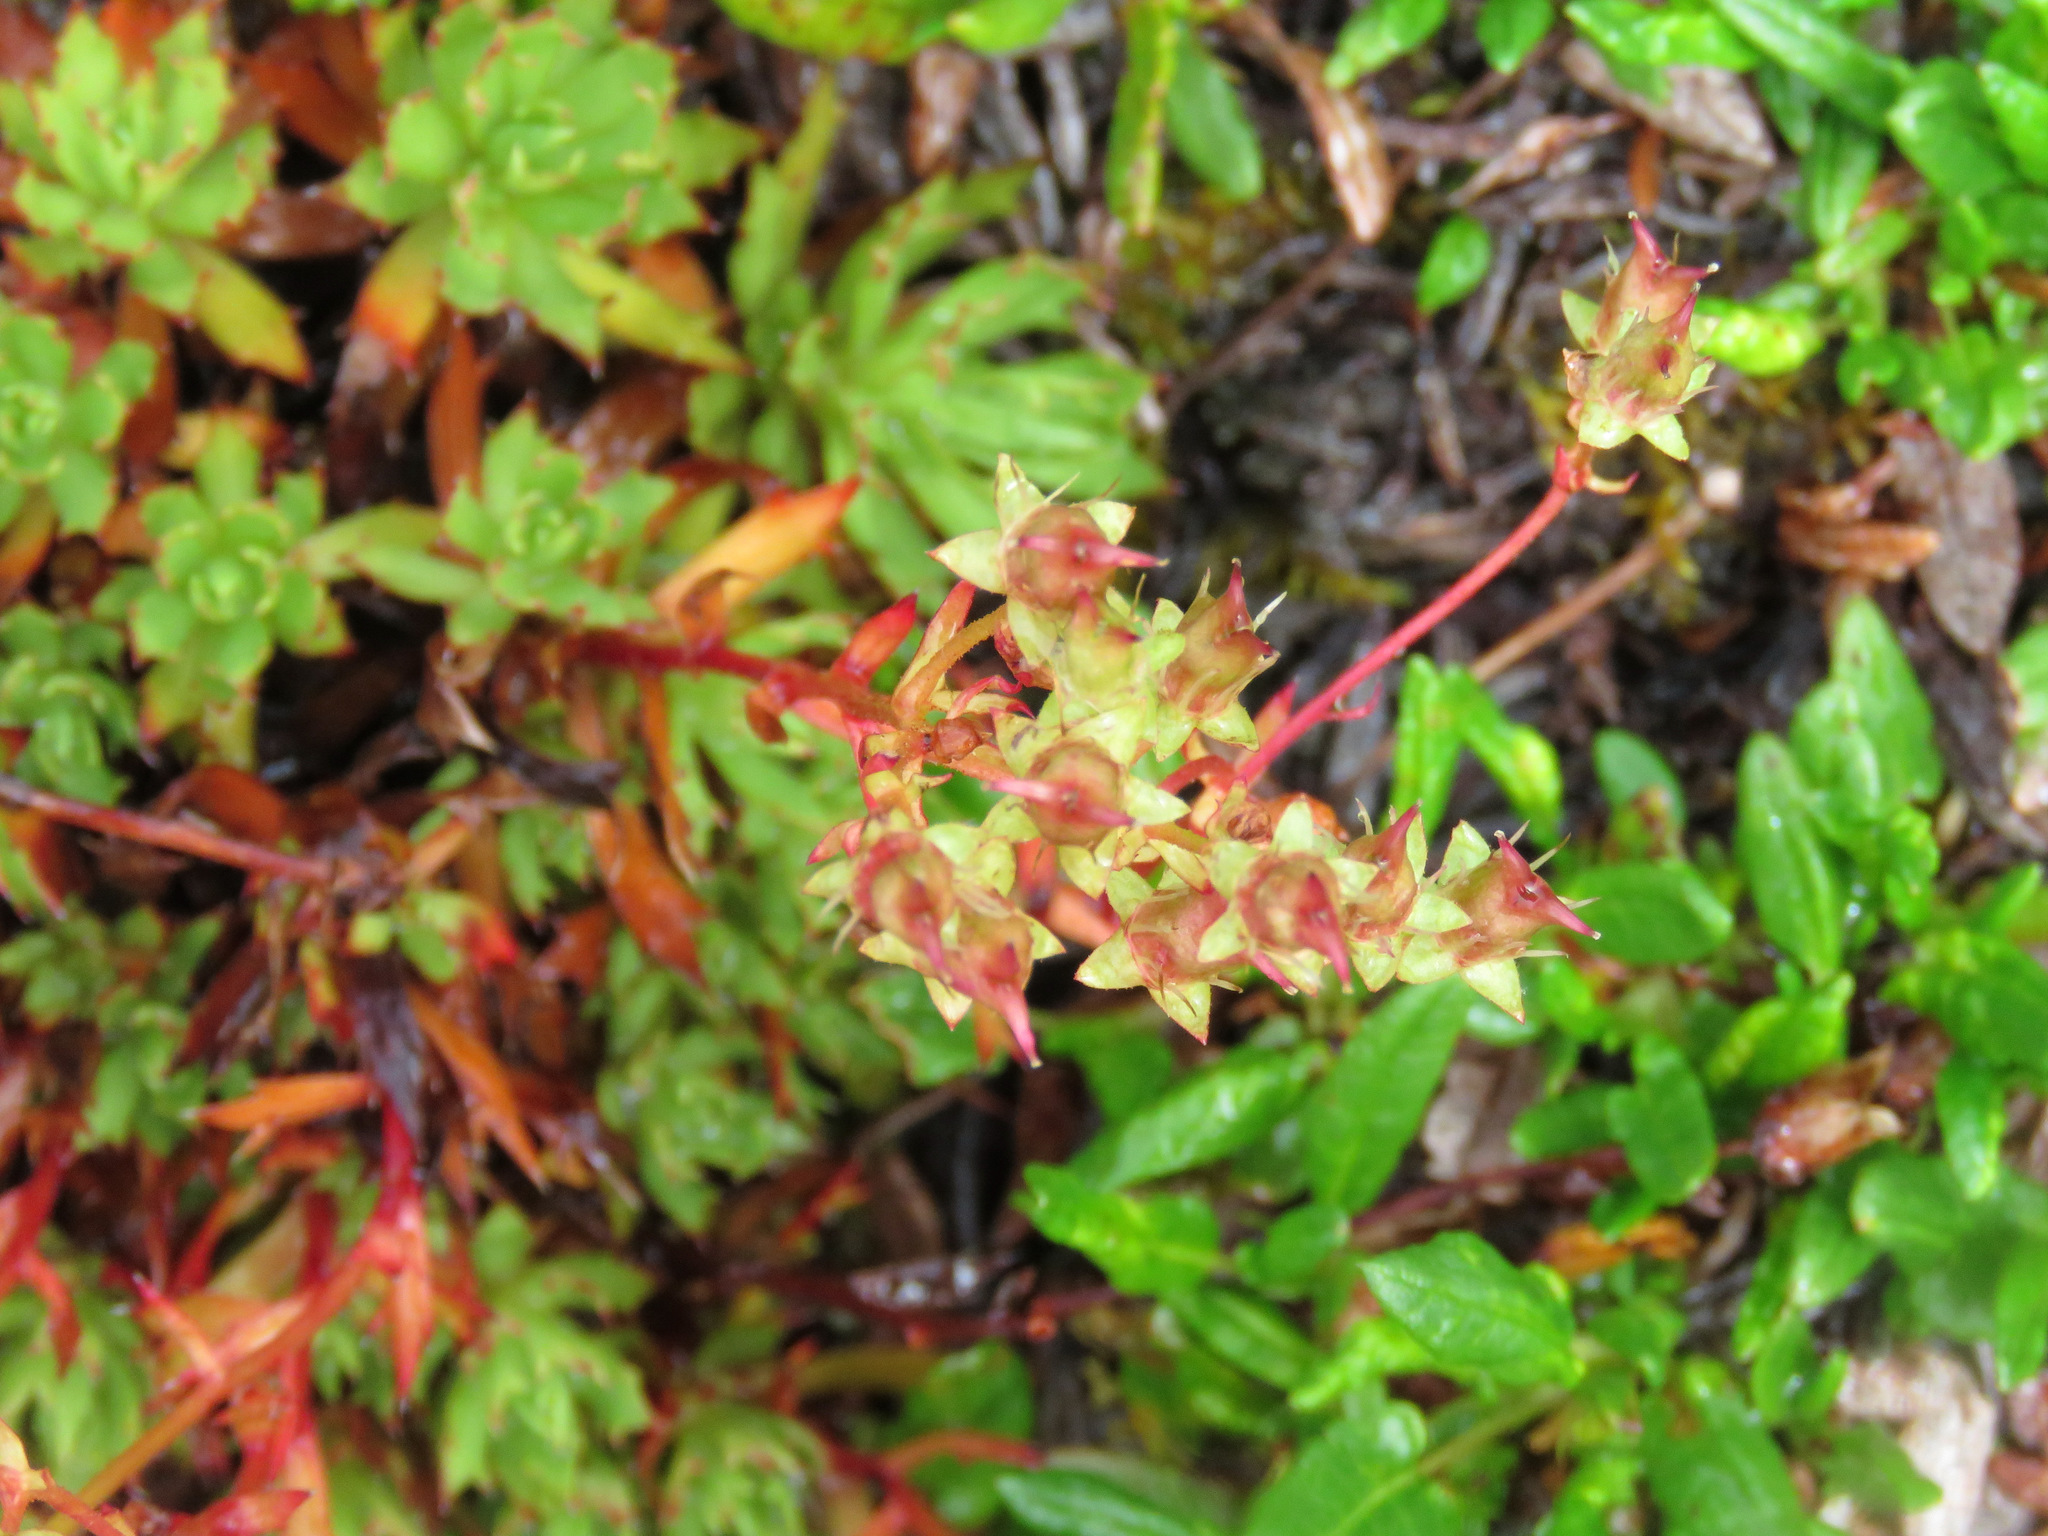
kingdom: Plantae
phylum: Tracheophyta
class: Magnoliopsida
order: Saxifragales
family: Saxifragaceae
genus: Saxifraga
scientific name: Saxifraga tricuspidata
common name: Prickly saxifrage
